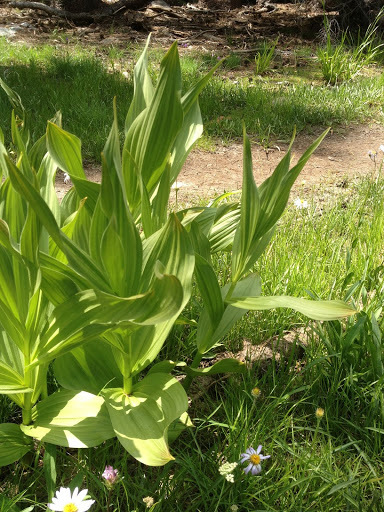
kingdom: Plantae
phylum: Tracheophyta
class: Liliopsida
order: Liliales
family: Melanthiaceae
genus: Veratrum
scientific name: Veratrum californicum
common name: California veratrum
